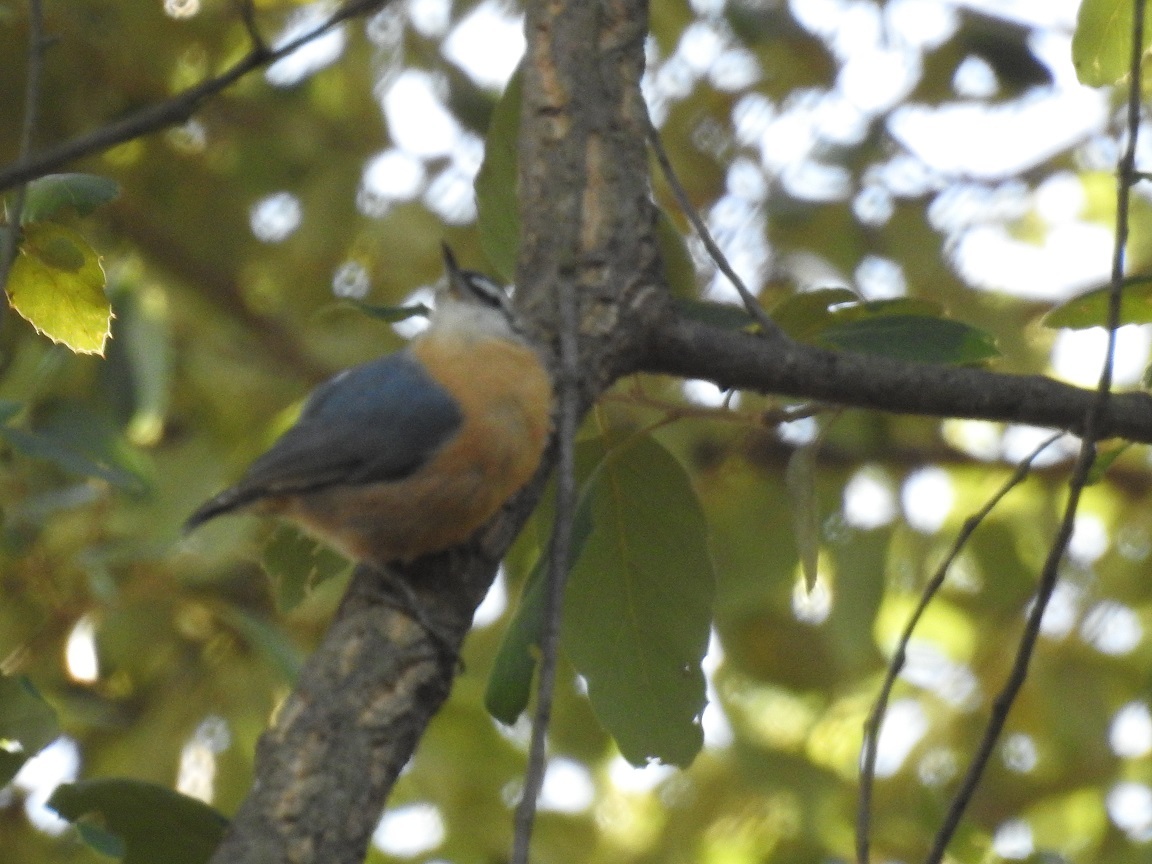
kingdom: Animalia
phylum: Chordata
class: Aves
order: Passeriformes
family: Sittidae
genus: Sitta
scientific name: Sitta ledanti
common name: Algerian nuthatch
